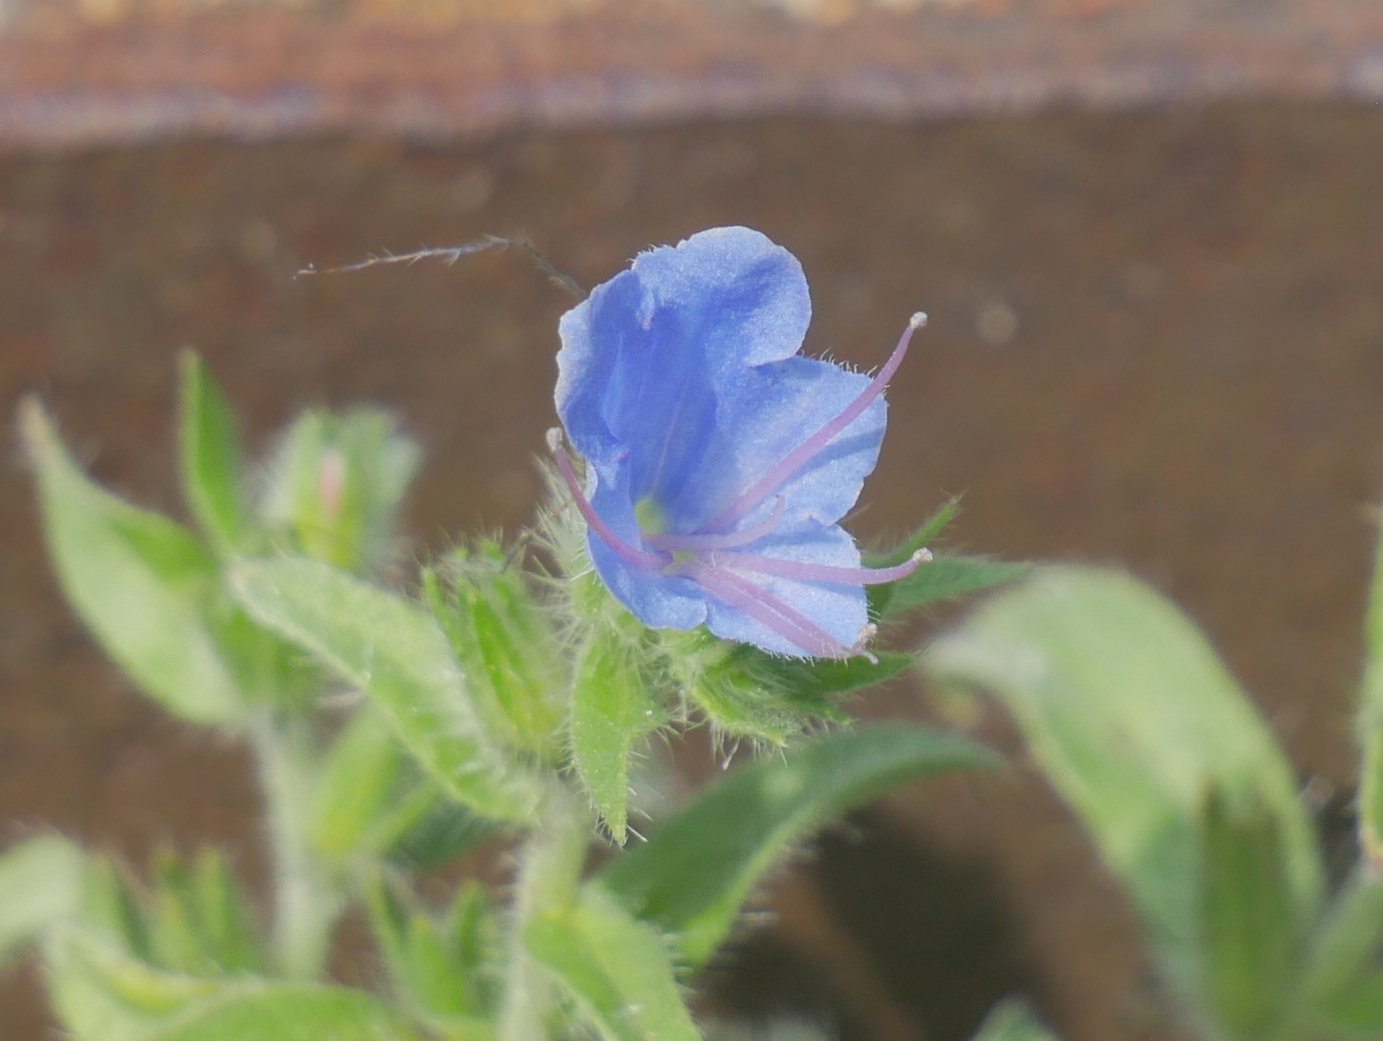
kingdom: Plantae
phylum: Tracheophyta
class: Magnoliopsida
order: Boraginales
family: Boraginaceae
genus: Echium
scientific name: Echium vulgare
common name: Common viper's bugloss
